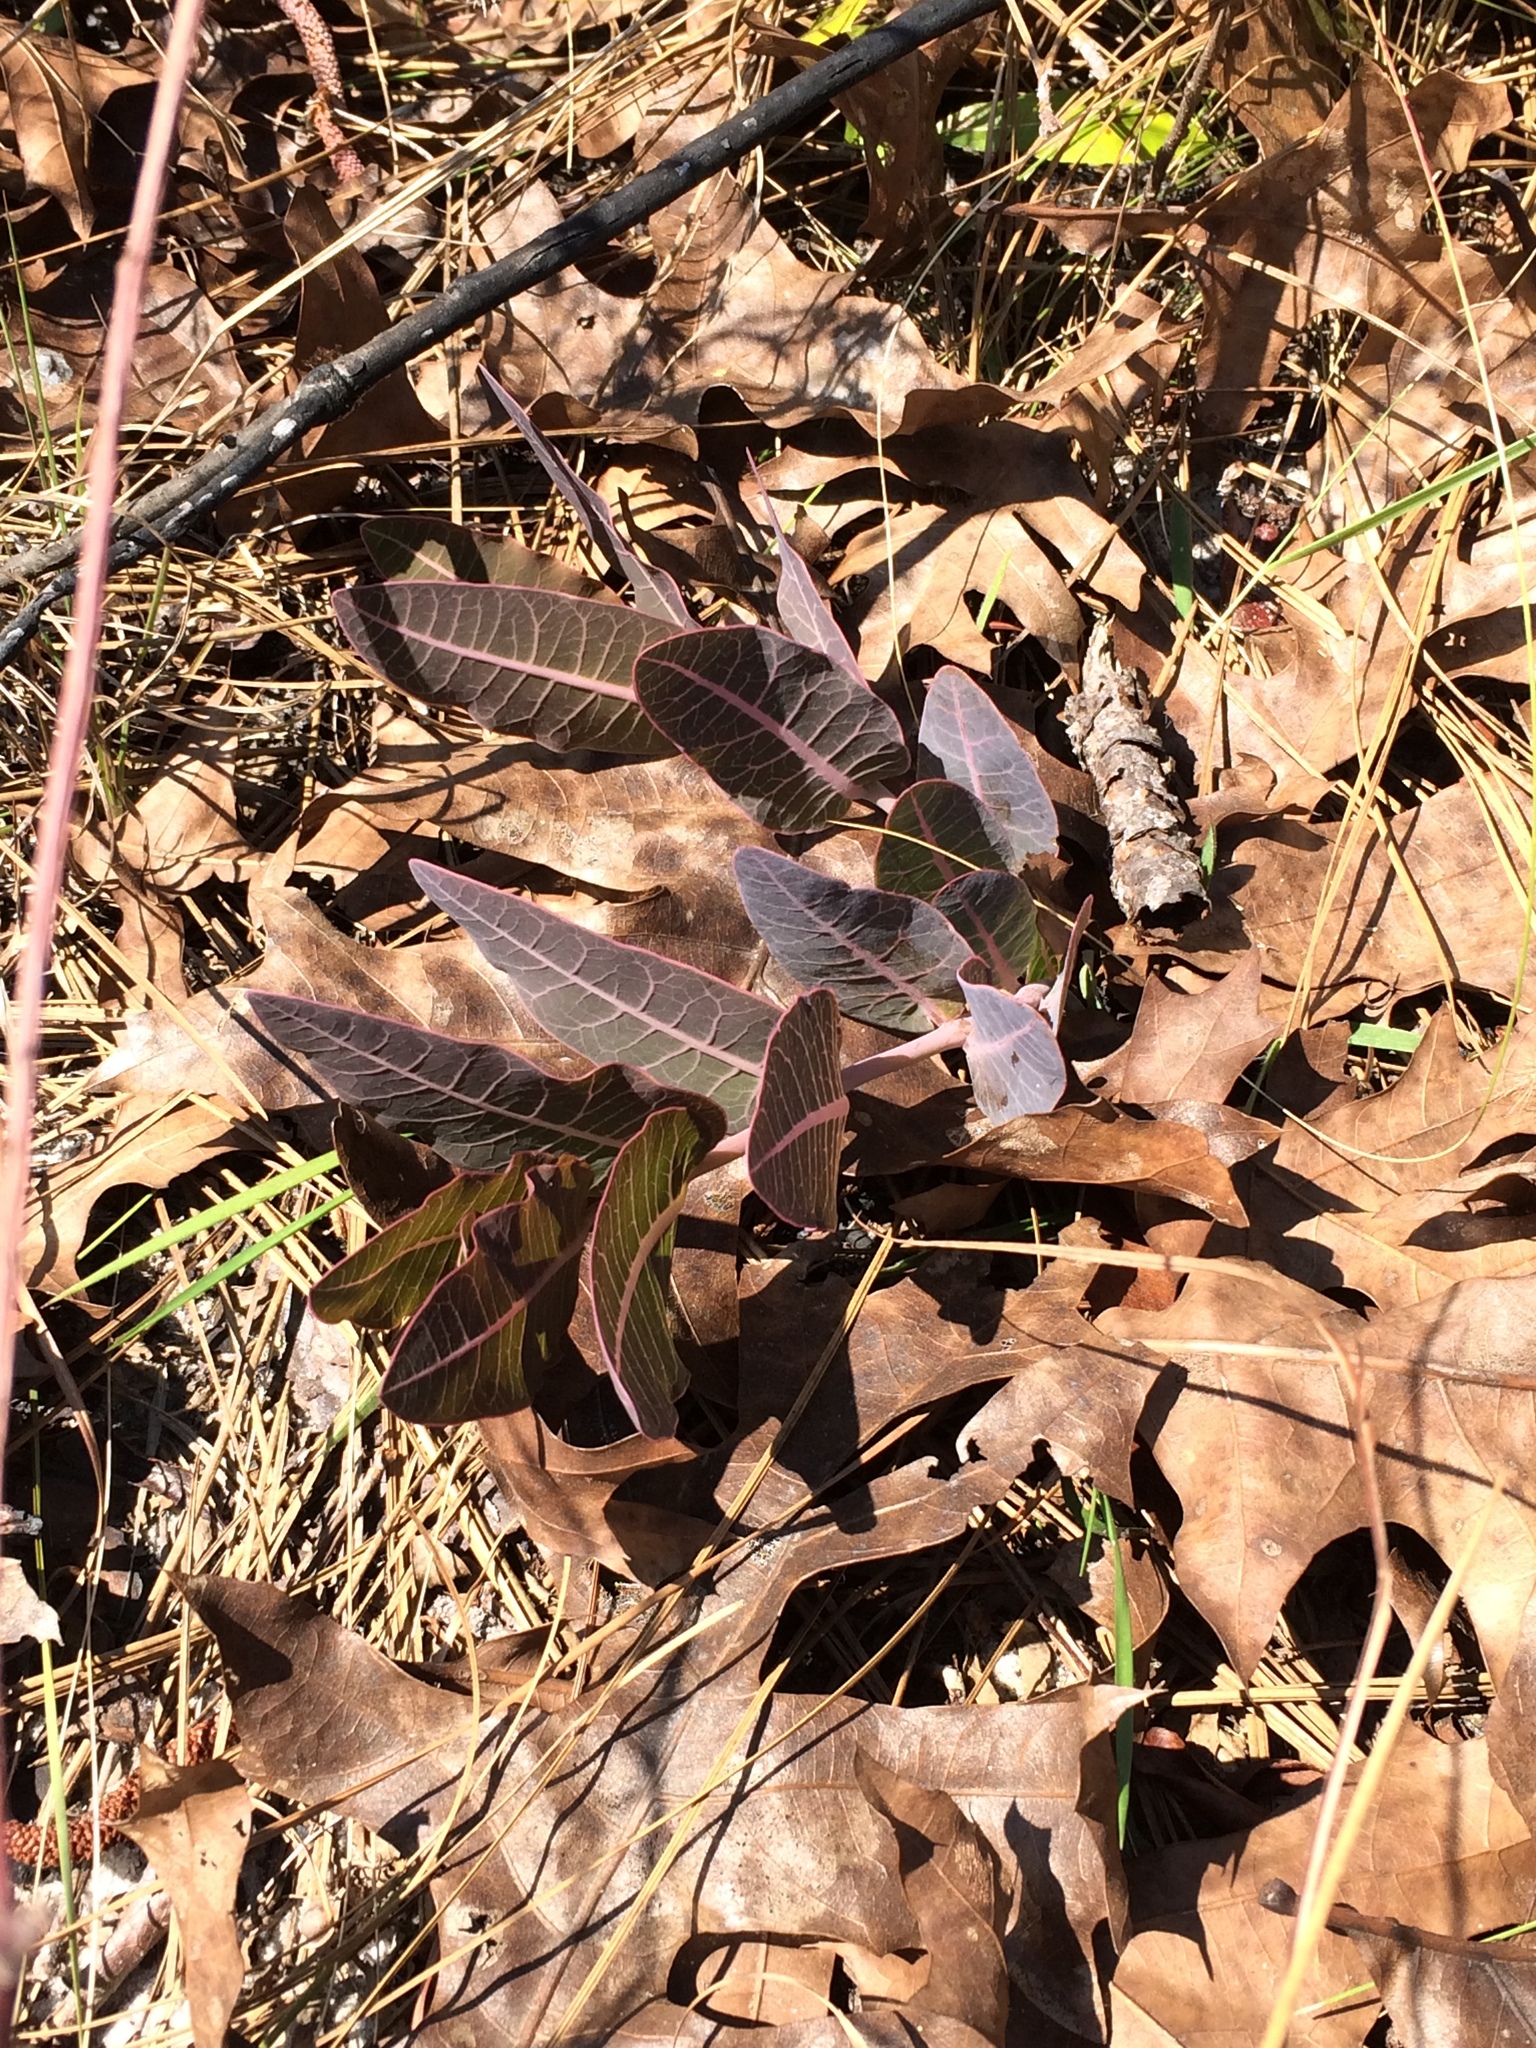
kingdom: Plantae
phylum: Tracheophyta
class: Magnoliopsida
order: Gentianales
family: Apocynaceae
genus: Asclepias
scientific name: Asclepias humistrata
